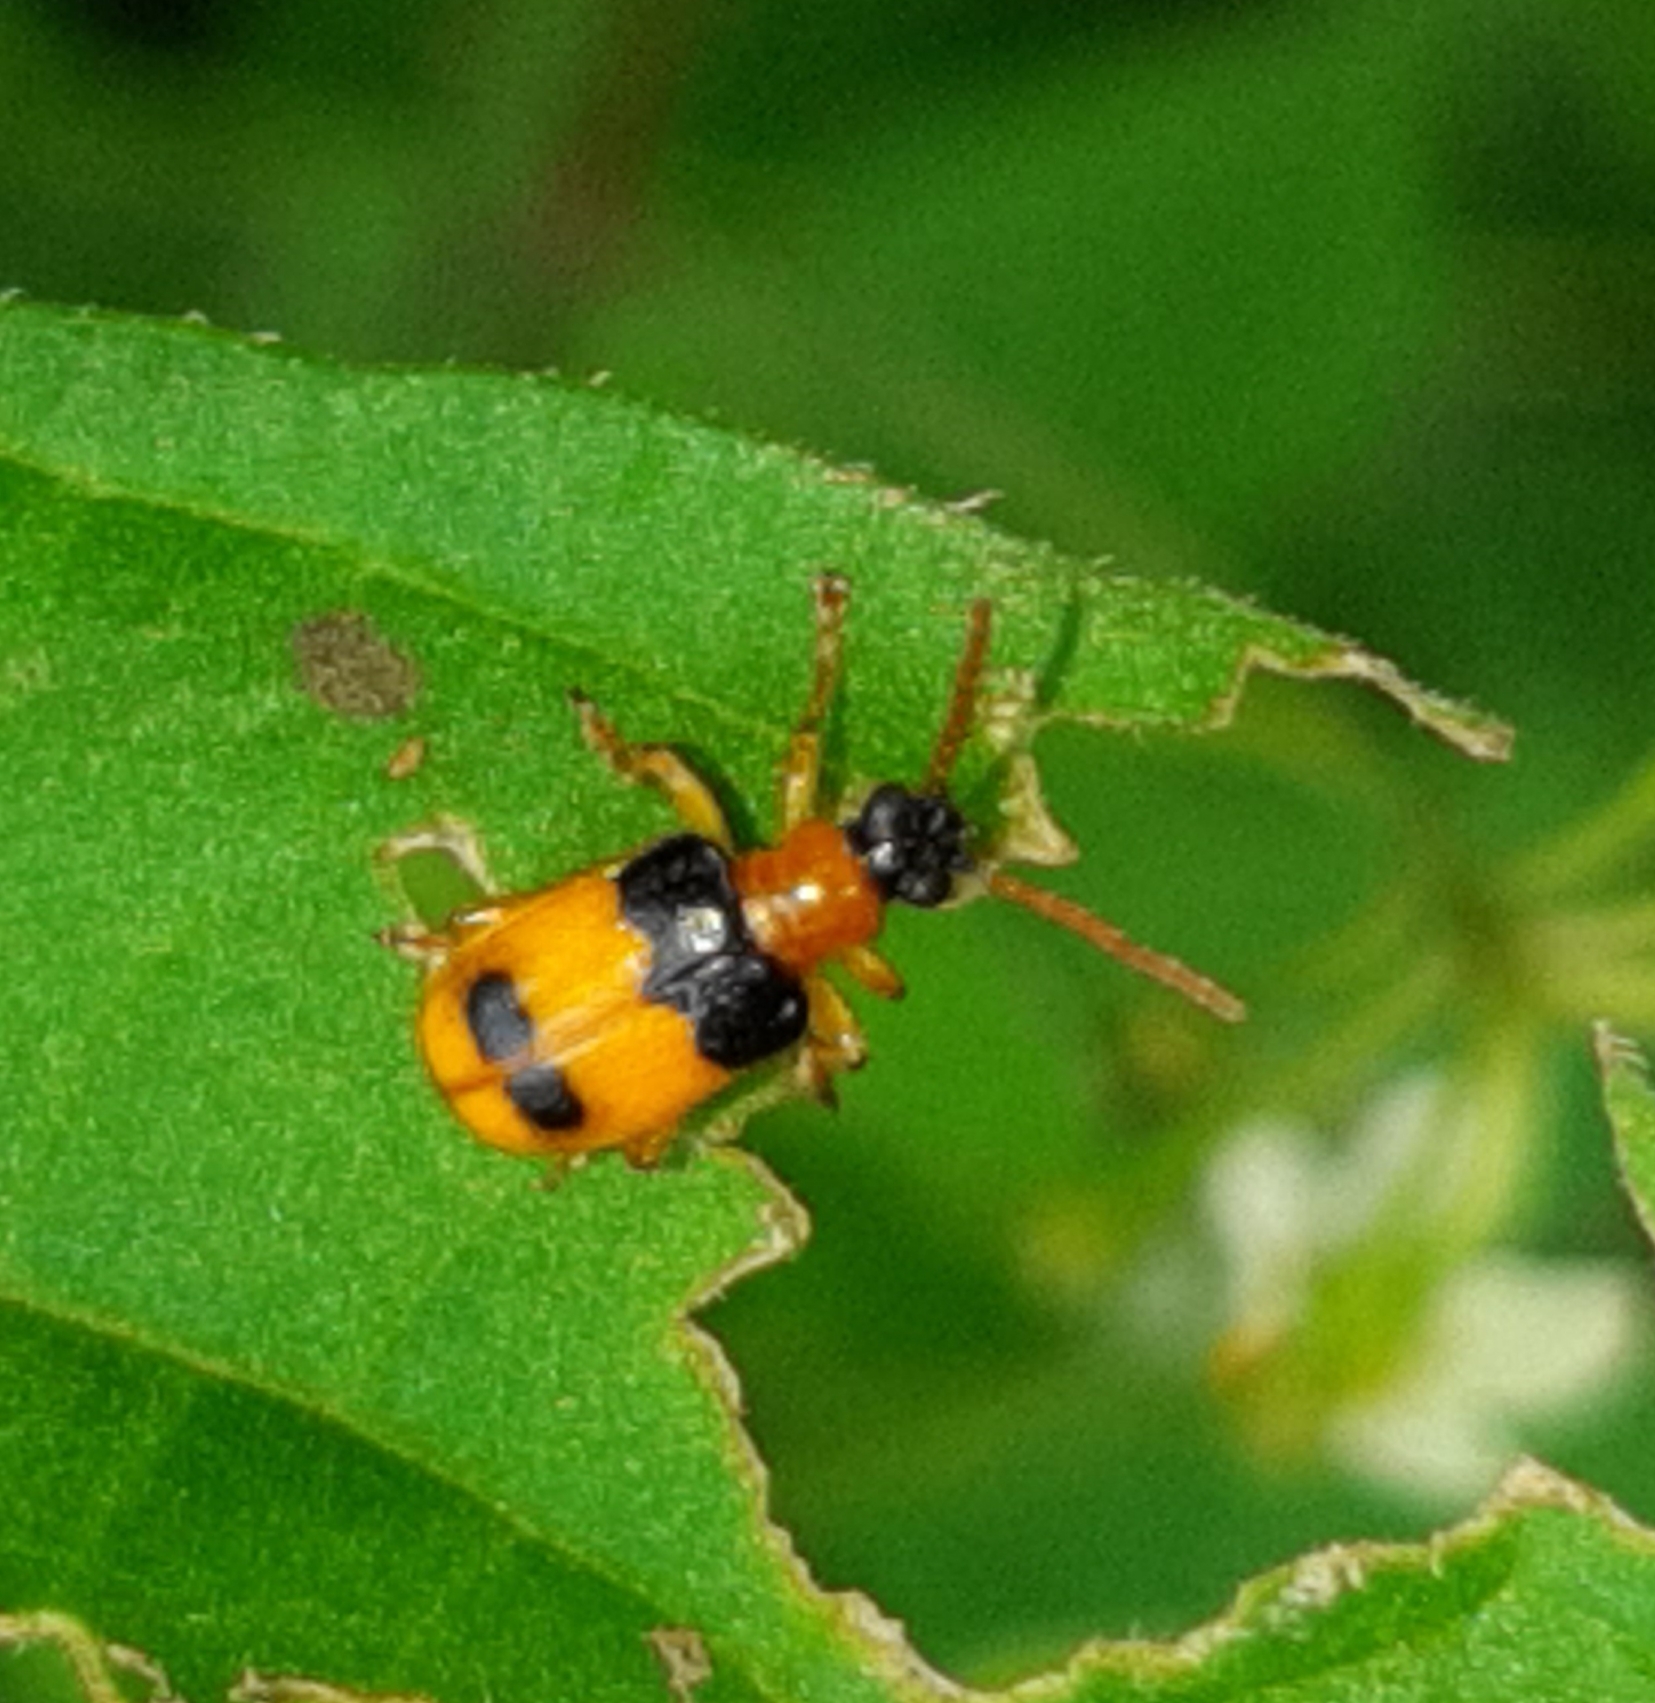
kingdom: Animalia
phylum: Arthropoda
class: Insecta
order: Coleoptera
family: Chrysomelidae
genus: Lema
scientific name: Lema
